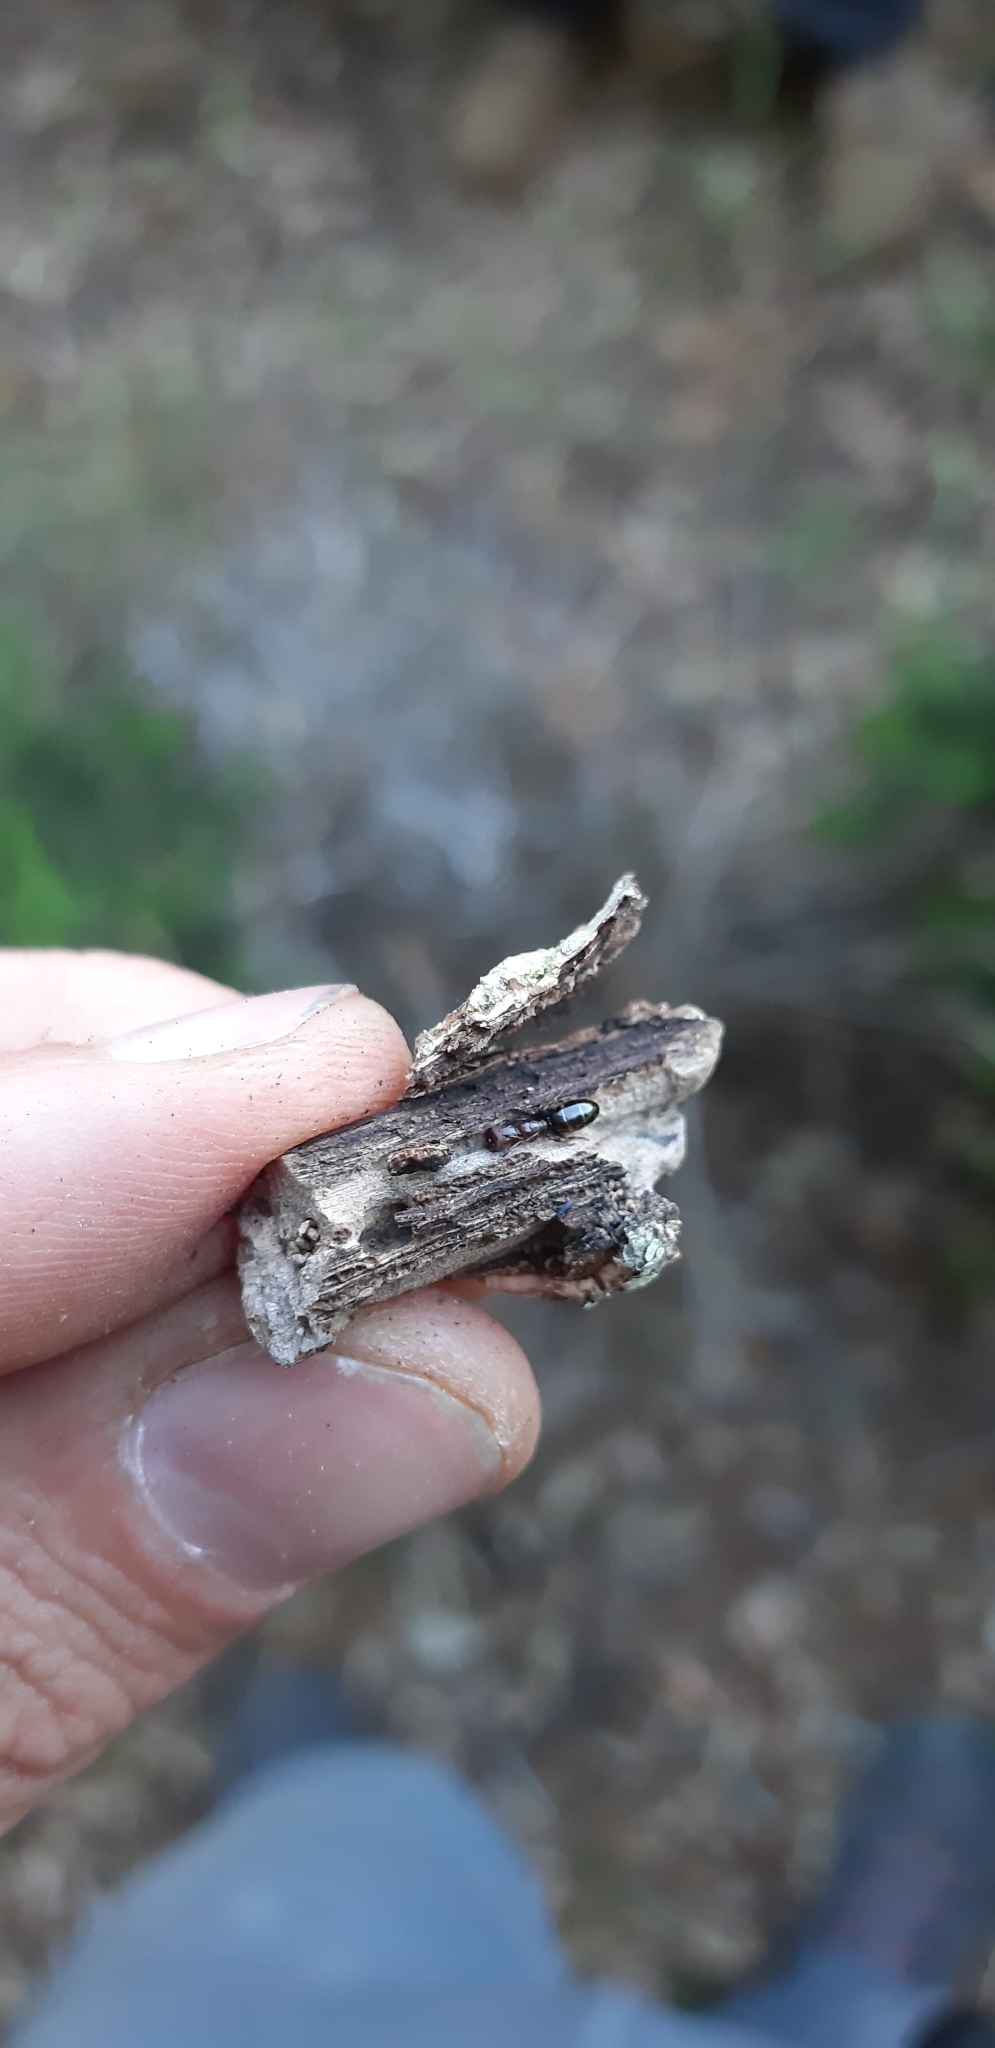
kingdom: Animalia
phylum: Arthropoda
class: Insecta
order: Hymenoptera
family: Formicidae
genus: Camponotus
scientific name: Camponotus truncatus
